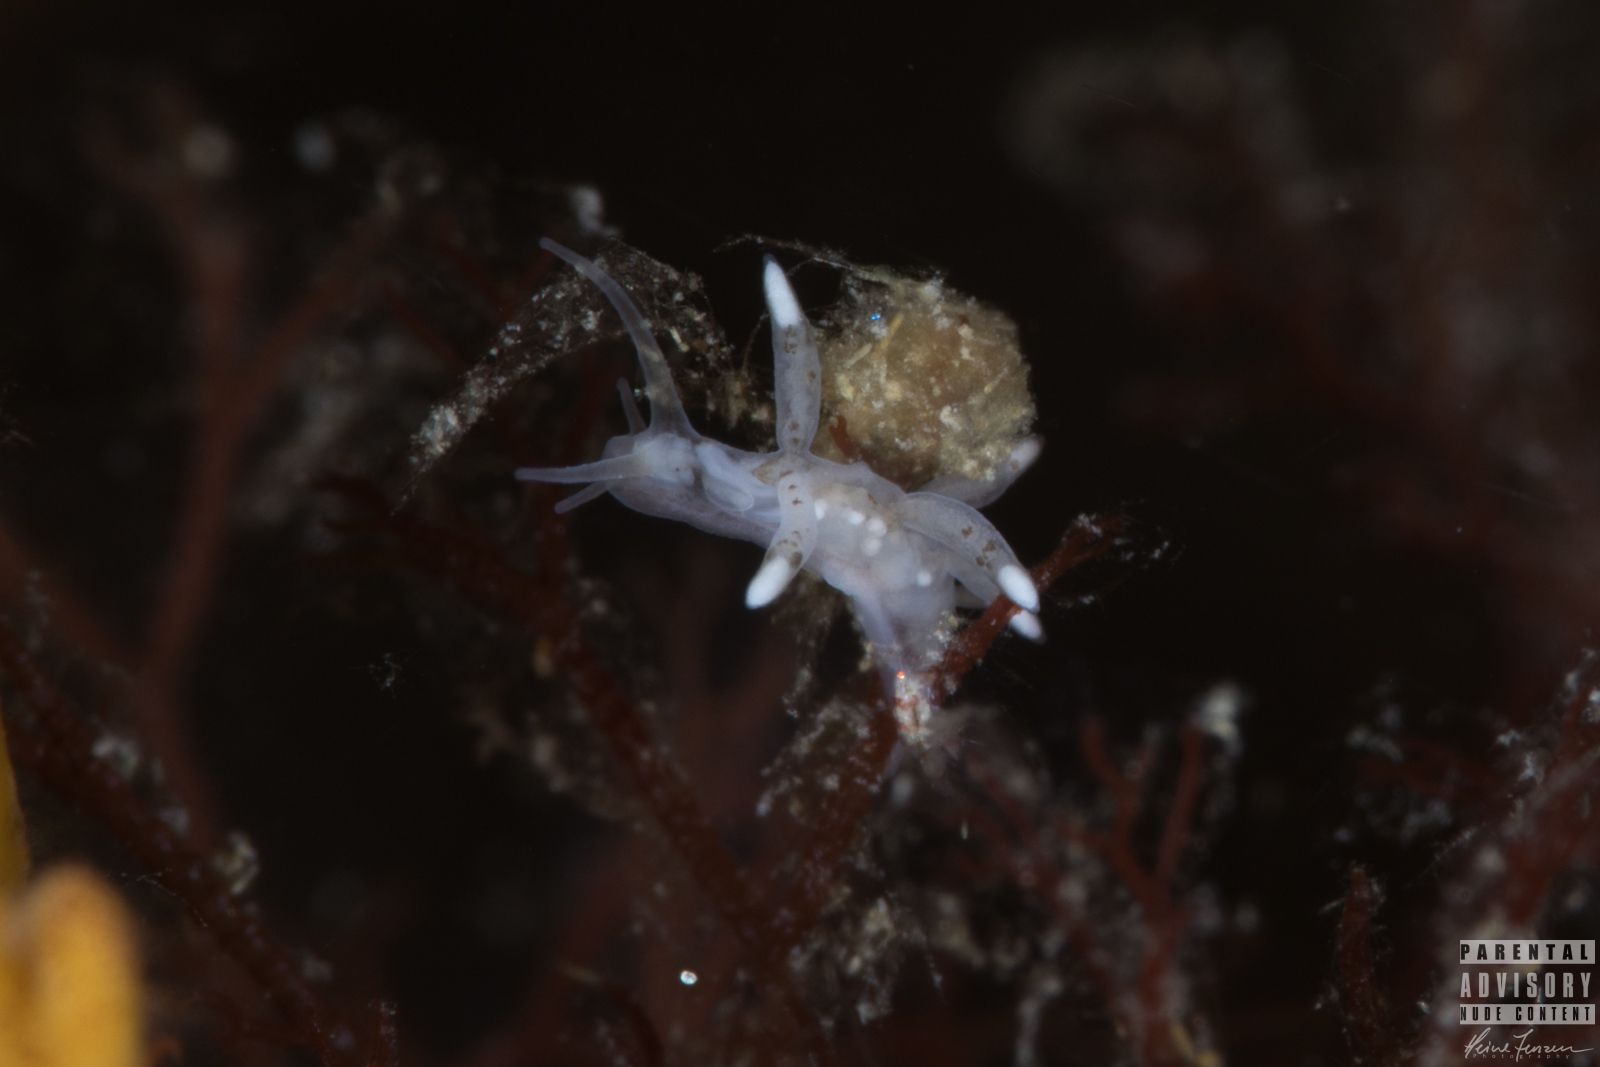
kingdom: Animalia
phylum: Mollusca
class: Gastropoda
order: Nudibranchia
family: Tergipedidae
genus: Tergipes
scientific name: Tergipes tergipes
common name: Johnston's balloon eolis
